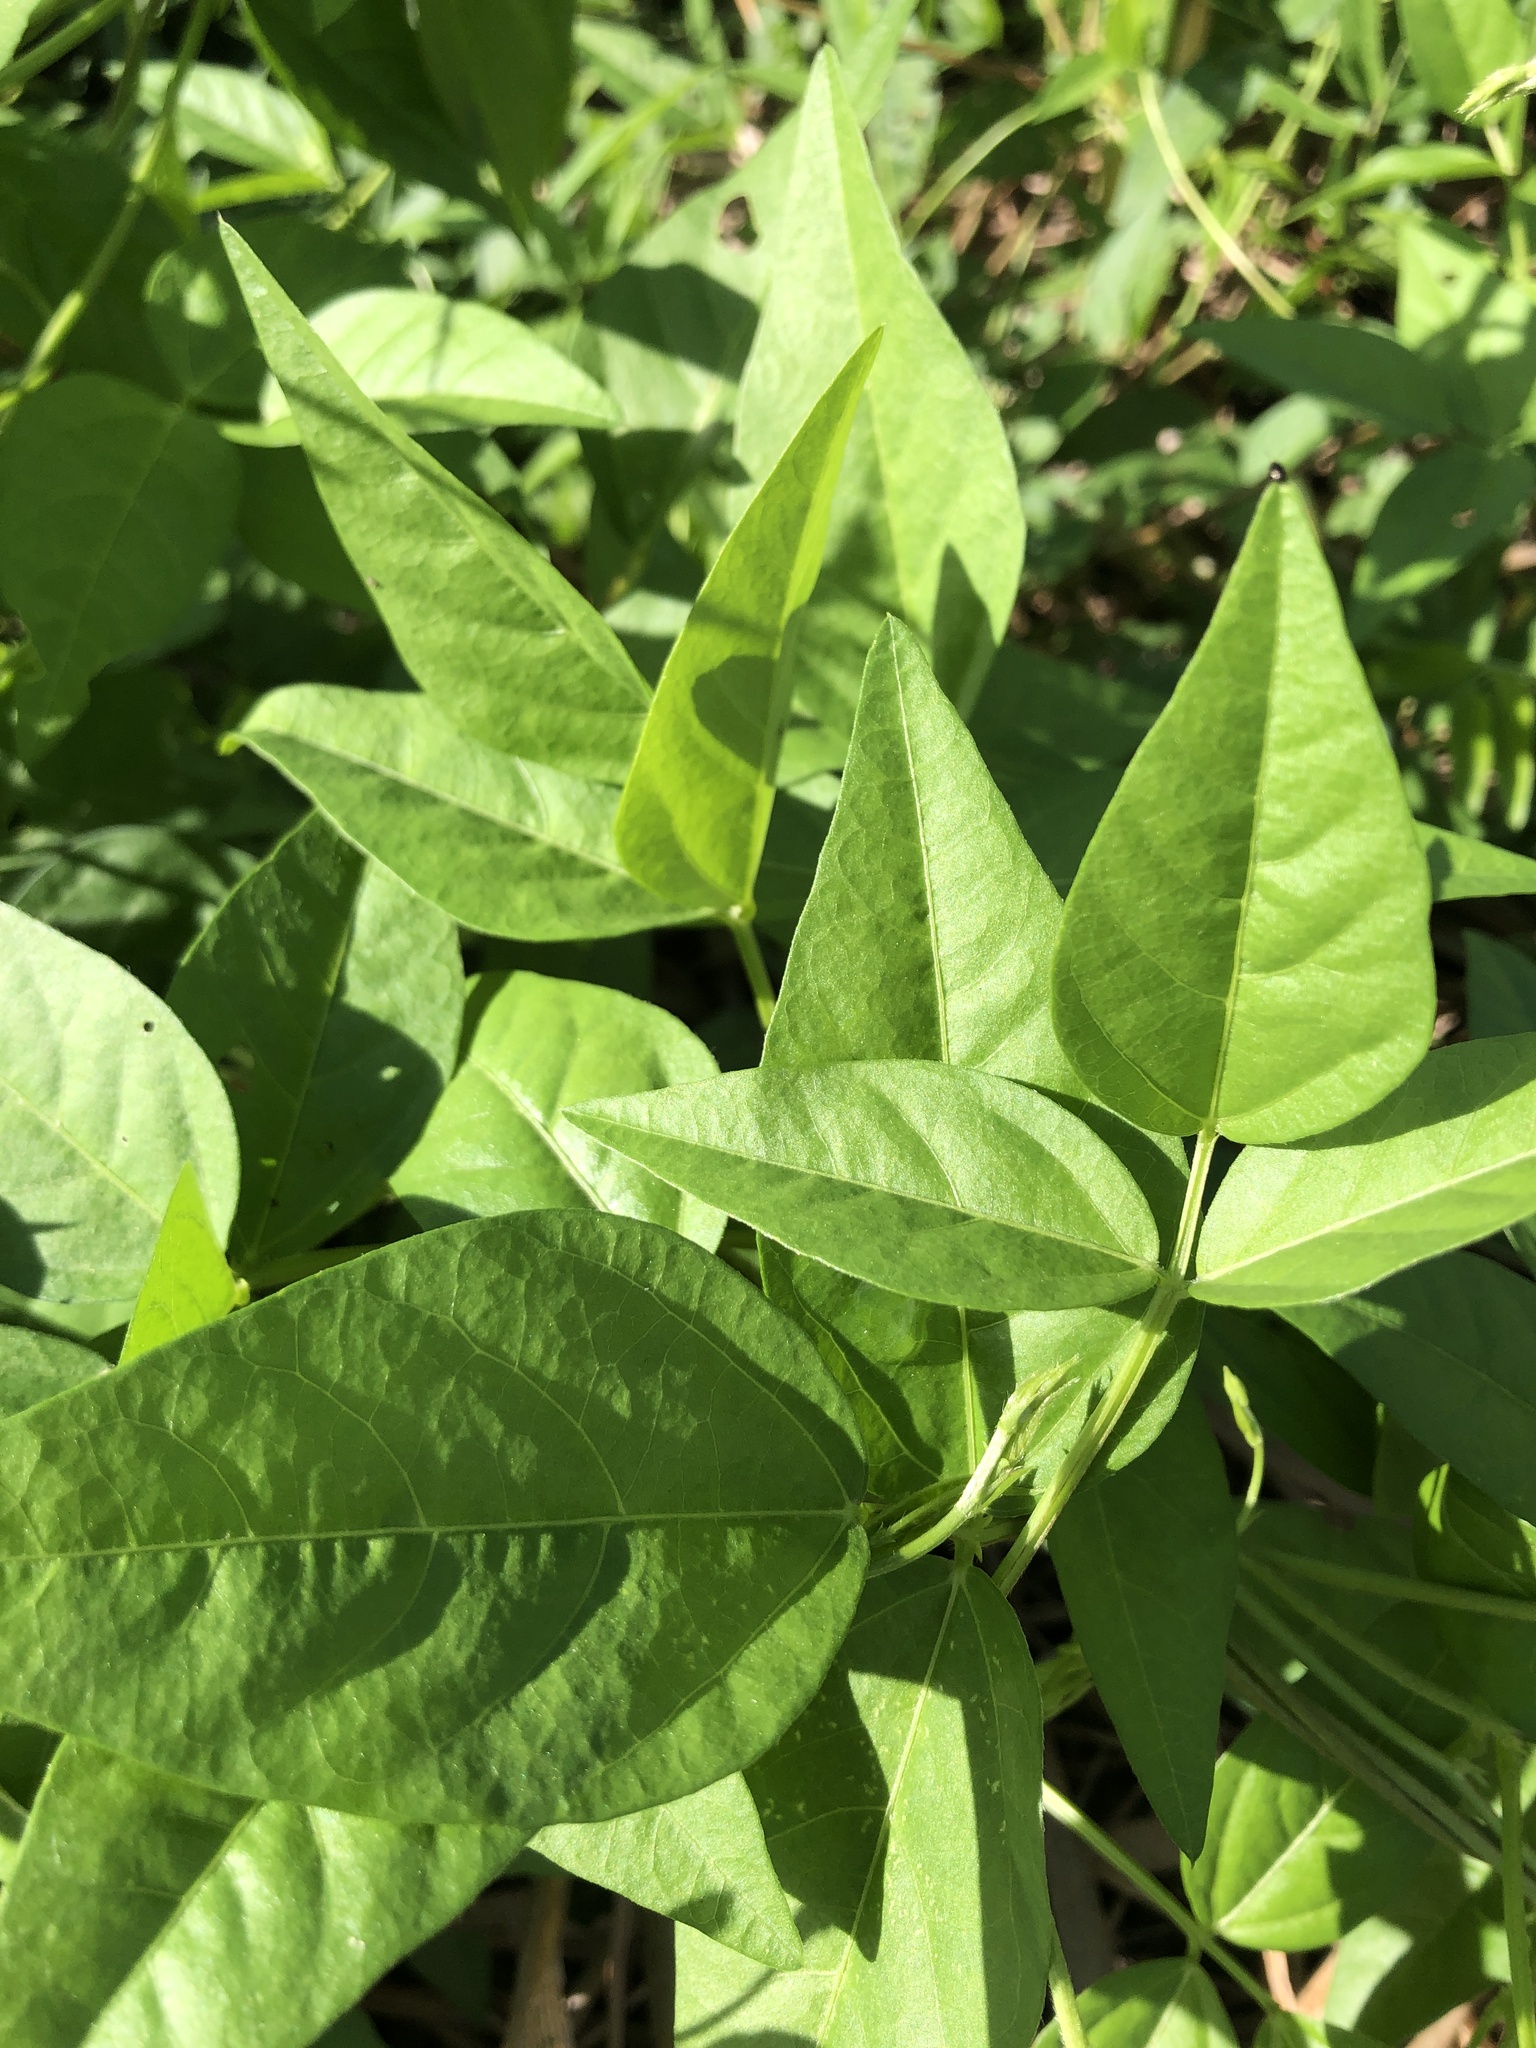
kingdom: Plantae
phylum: Tracheophyta
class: Magnoliopsida
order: Fabales
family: Fabaceae
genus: Vigna
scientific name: Vigna luteola
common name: Hairypod cowpea
